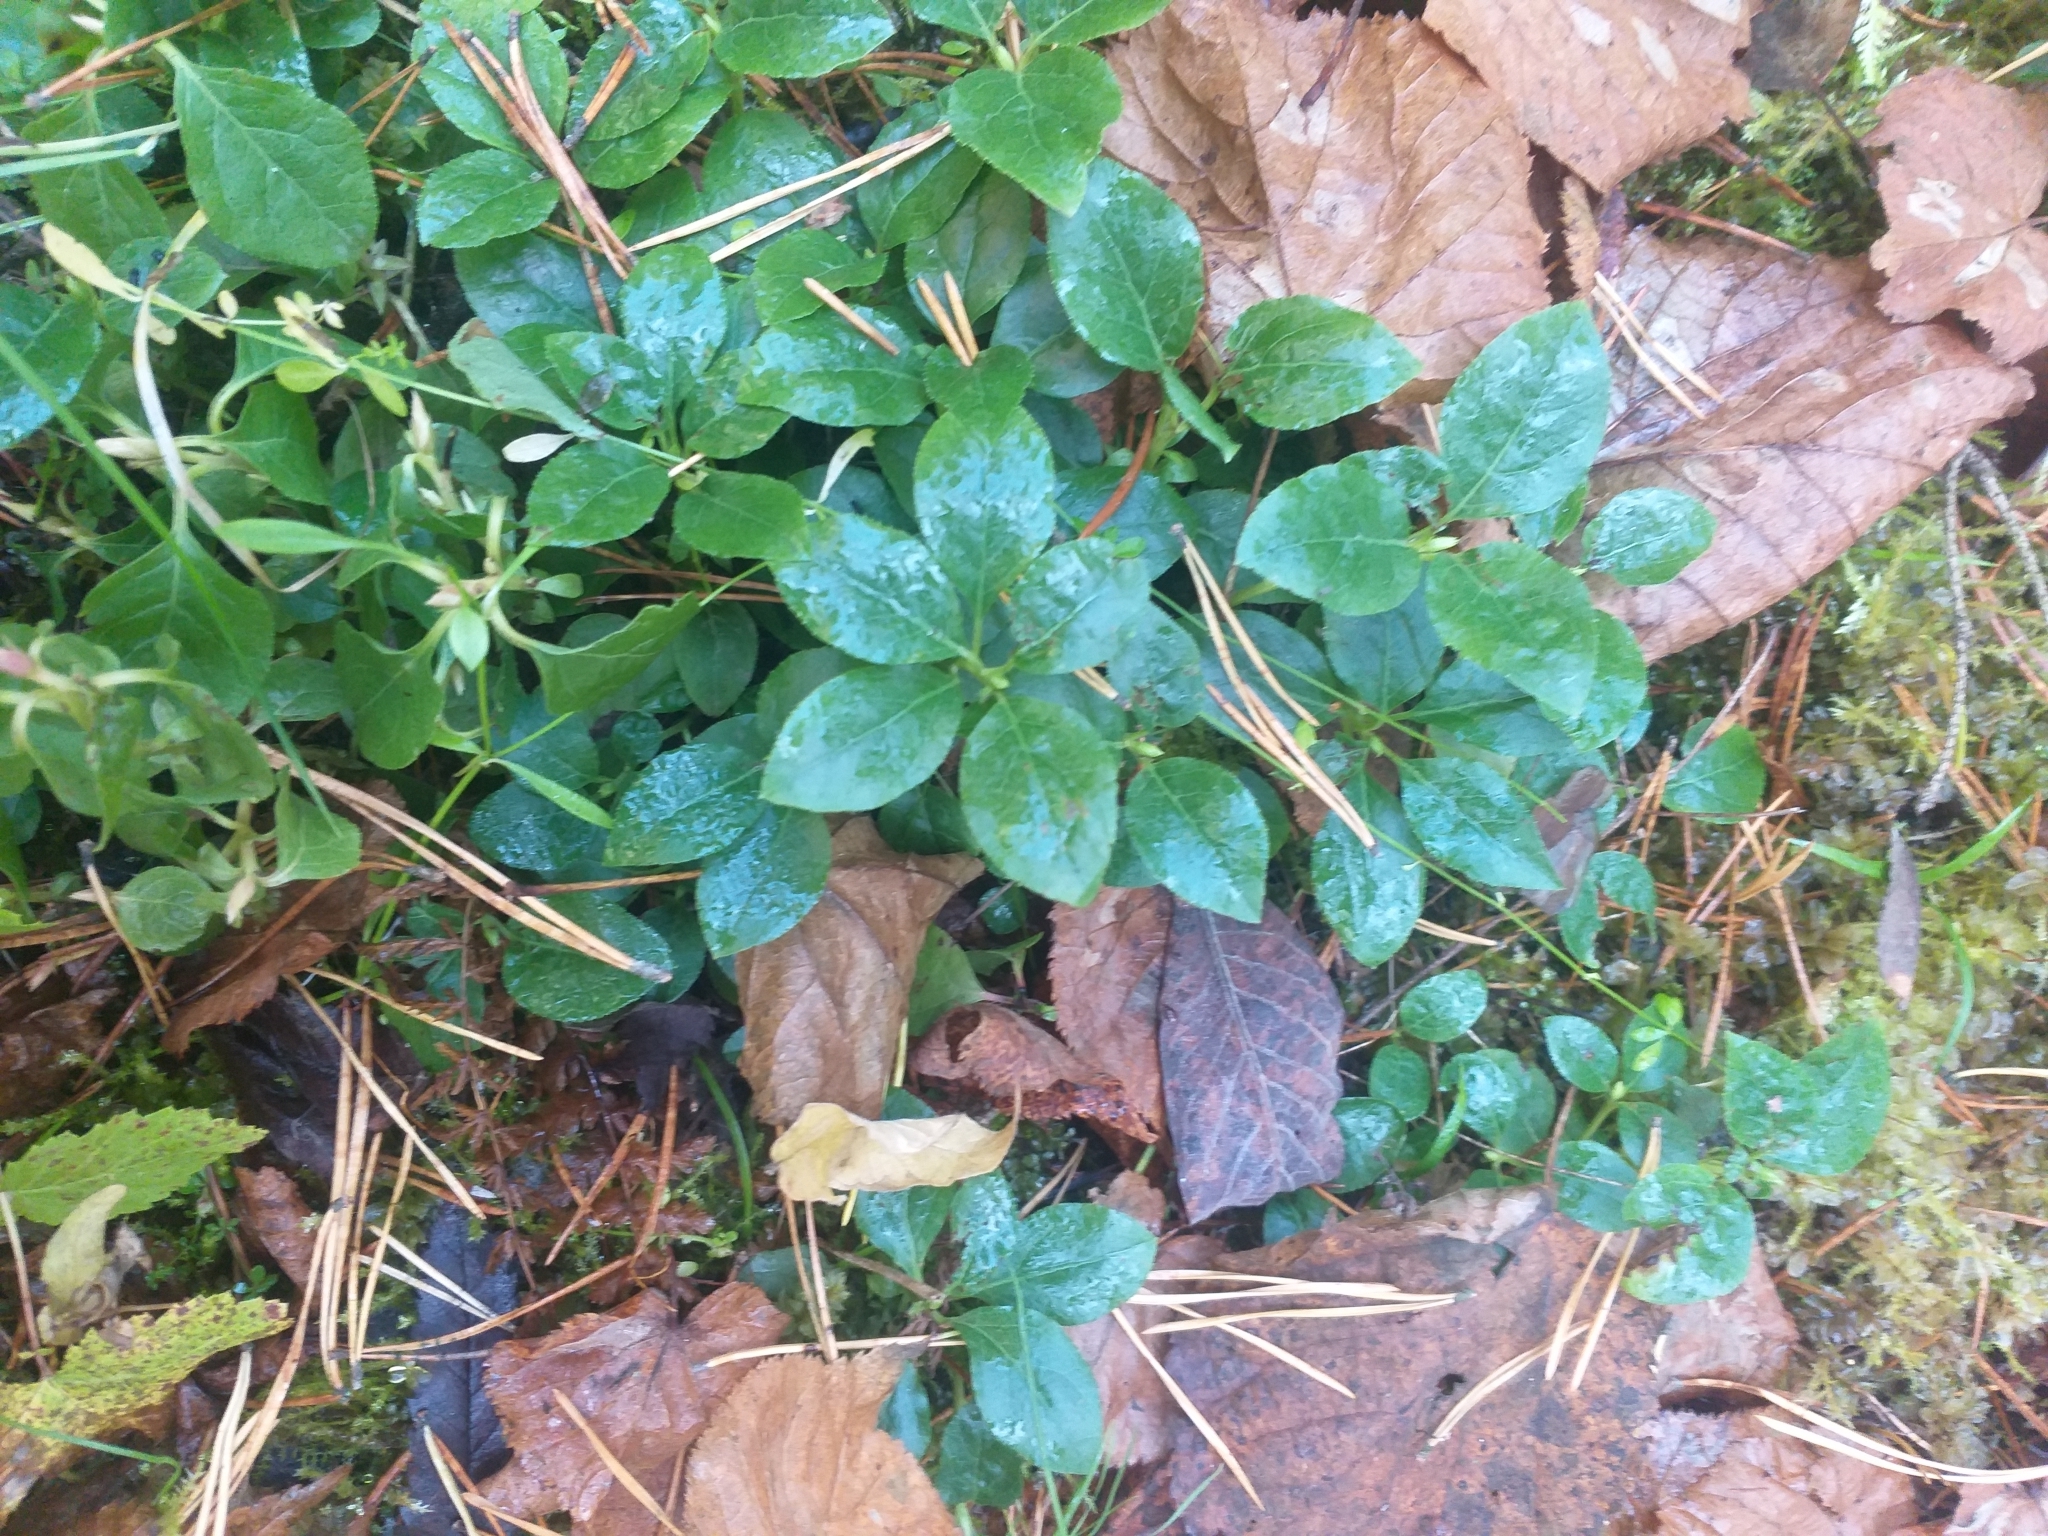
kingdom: Plantae
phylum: Tracheophyta
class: Magnoliopsida
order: Ericales
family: Ericaceae
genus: Orthilia
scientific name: Orthilia secunda
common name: One-sided orthilia
